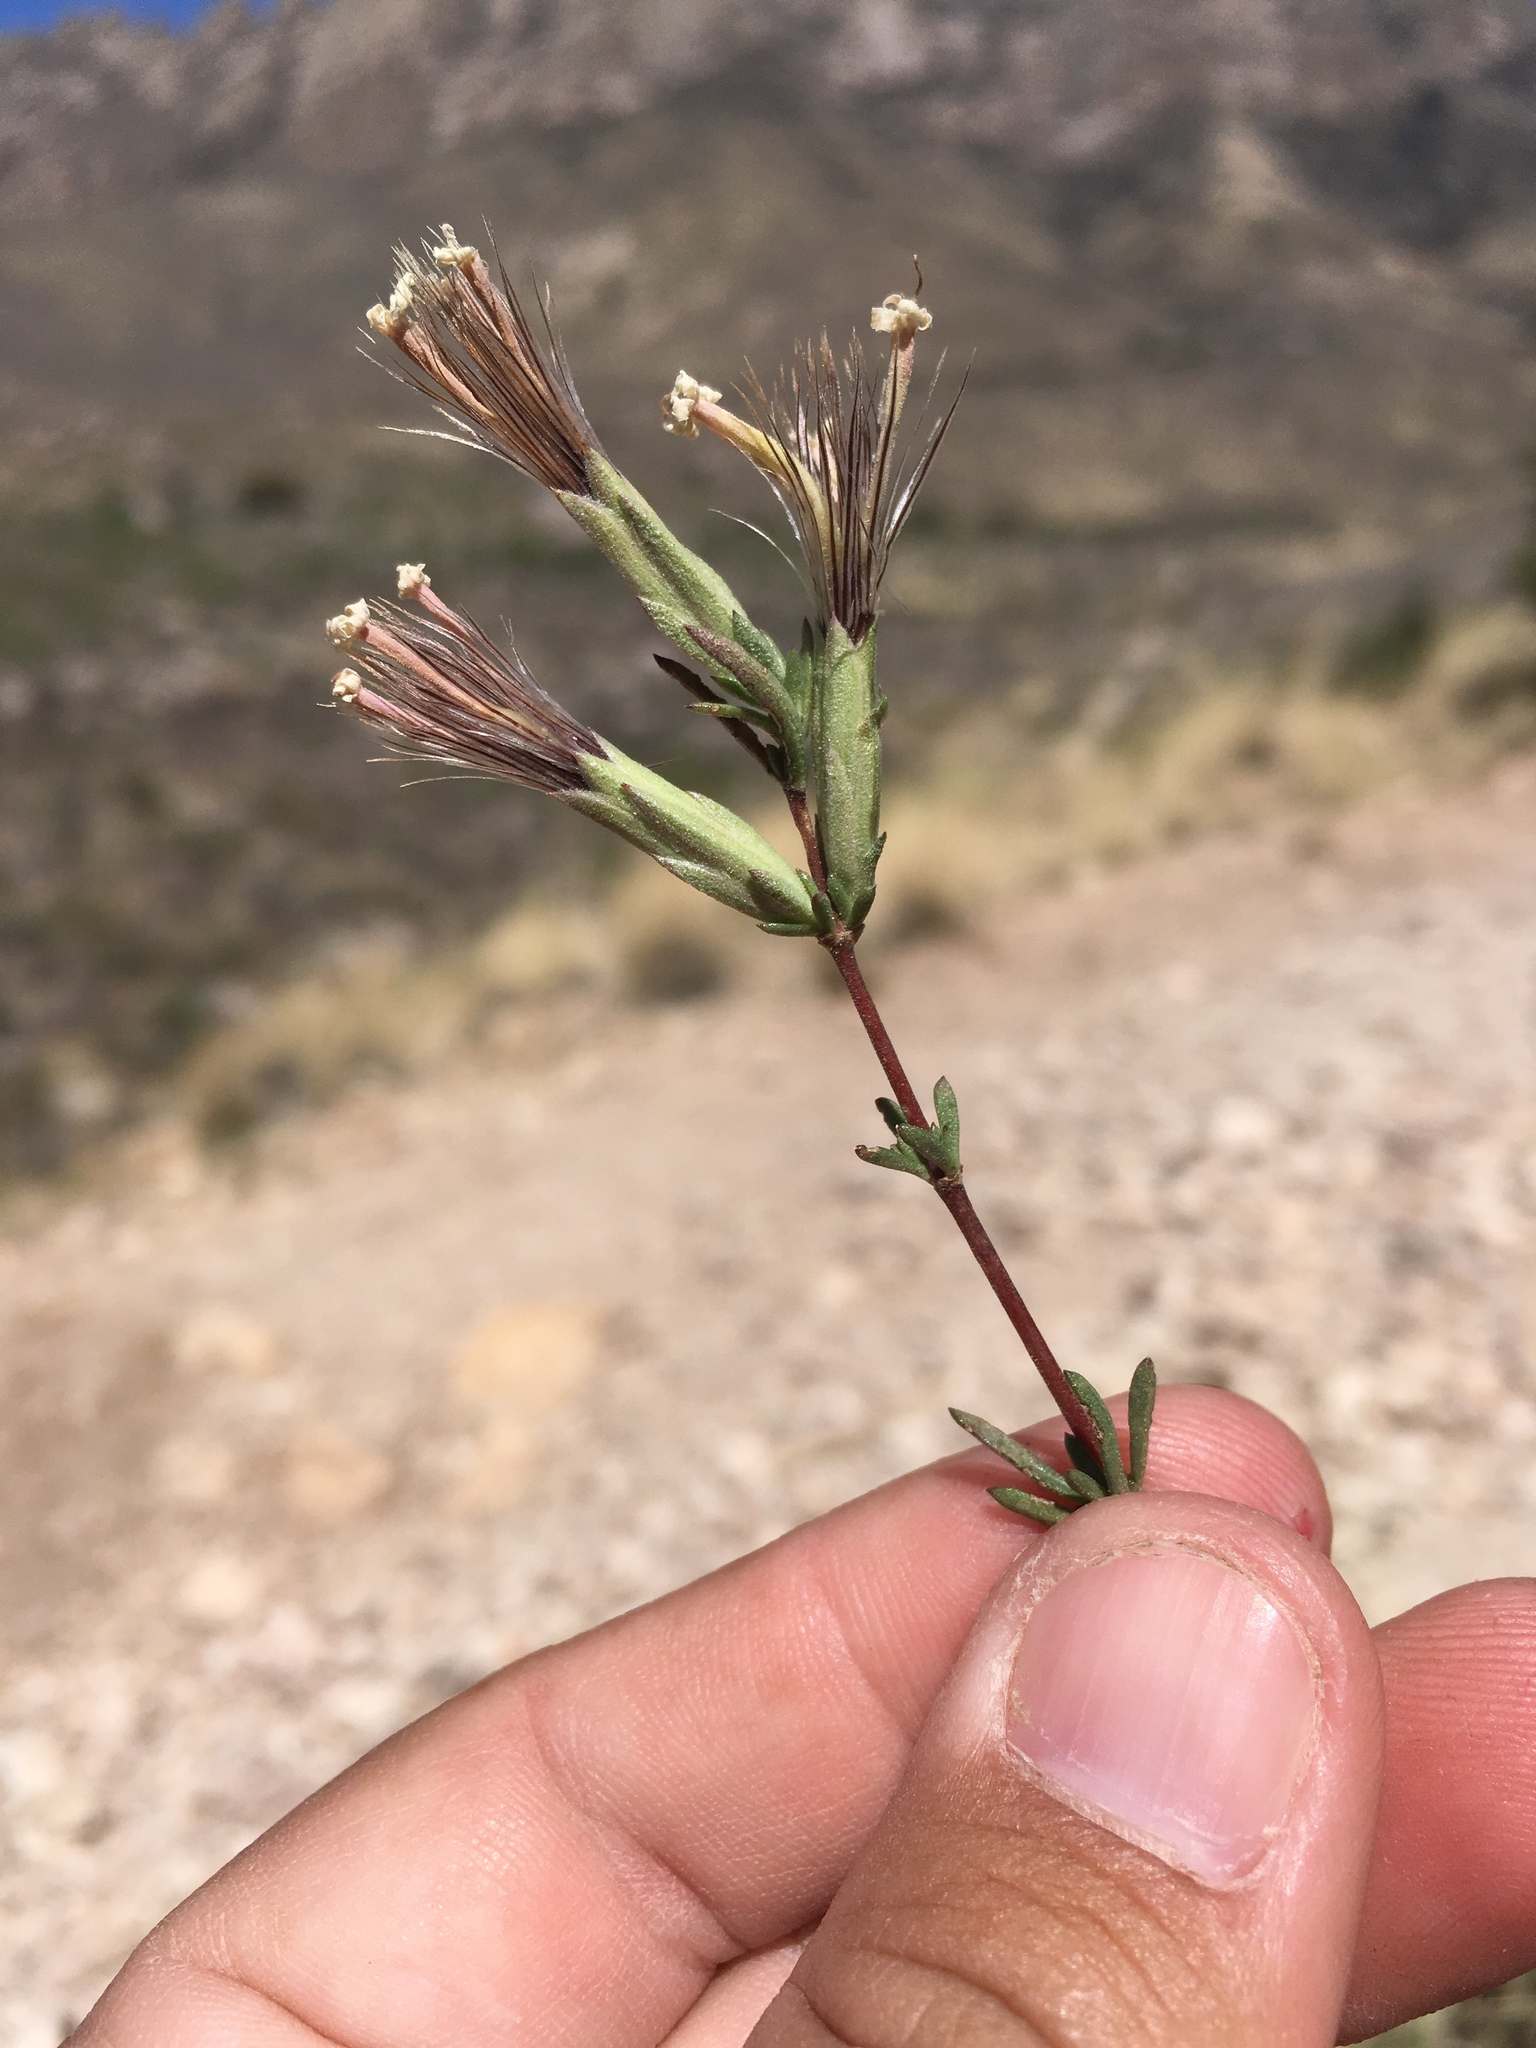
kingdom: Plantae
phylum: Tracheophyta
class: Magnoliopsida
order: Asterales
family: Asteraceae
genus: Carphochaete
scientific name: Carphochaete bigelovii
